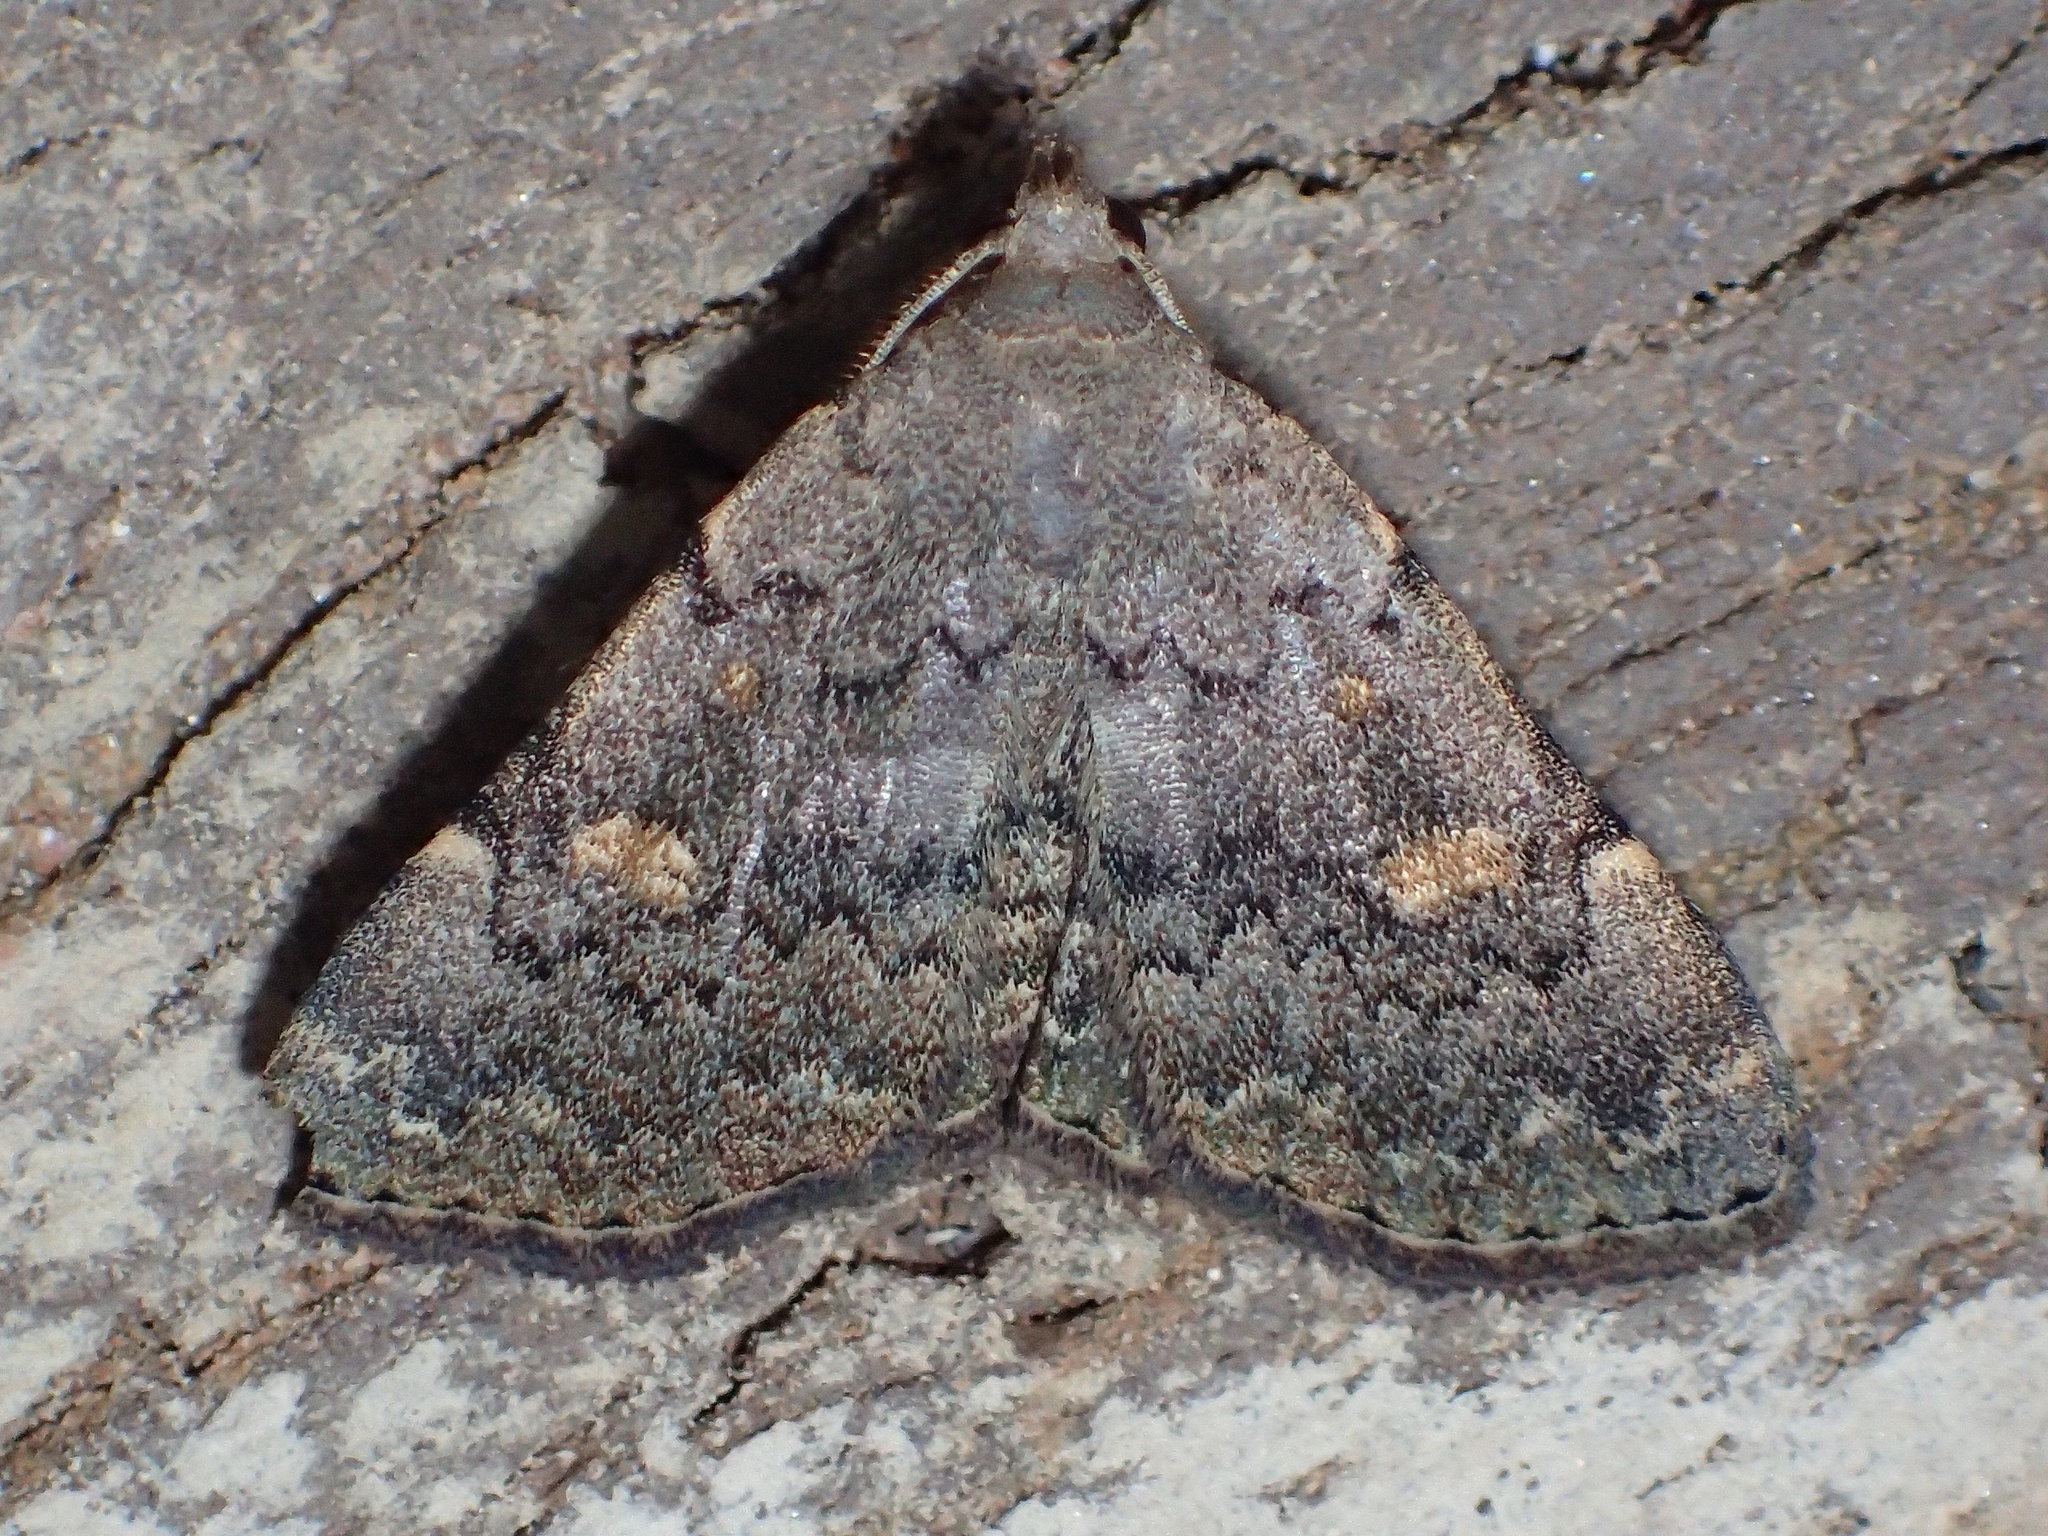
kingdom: Animalia
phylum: Arthropoda
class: Insecta
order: Lepidoptera
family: Erebidae
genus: Idia
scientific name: Idia aemula
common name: Common idia moth
